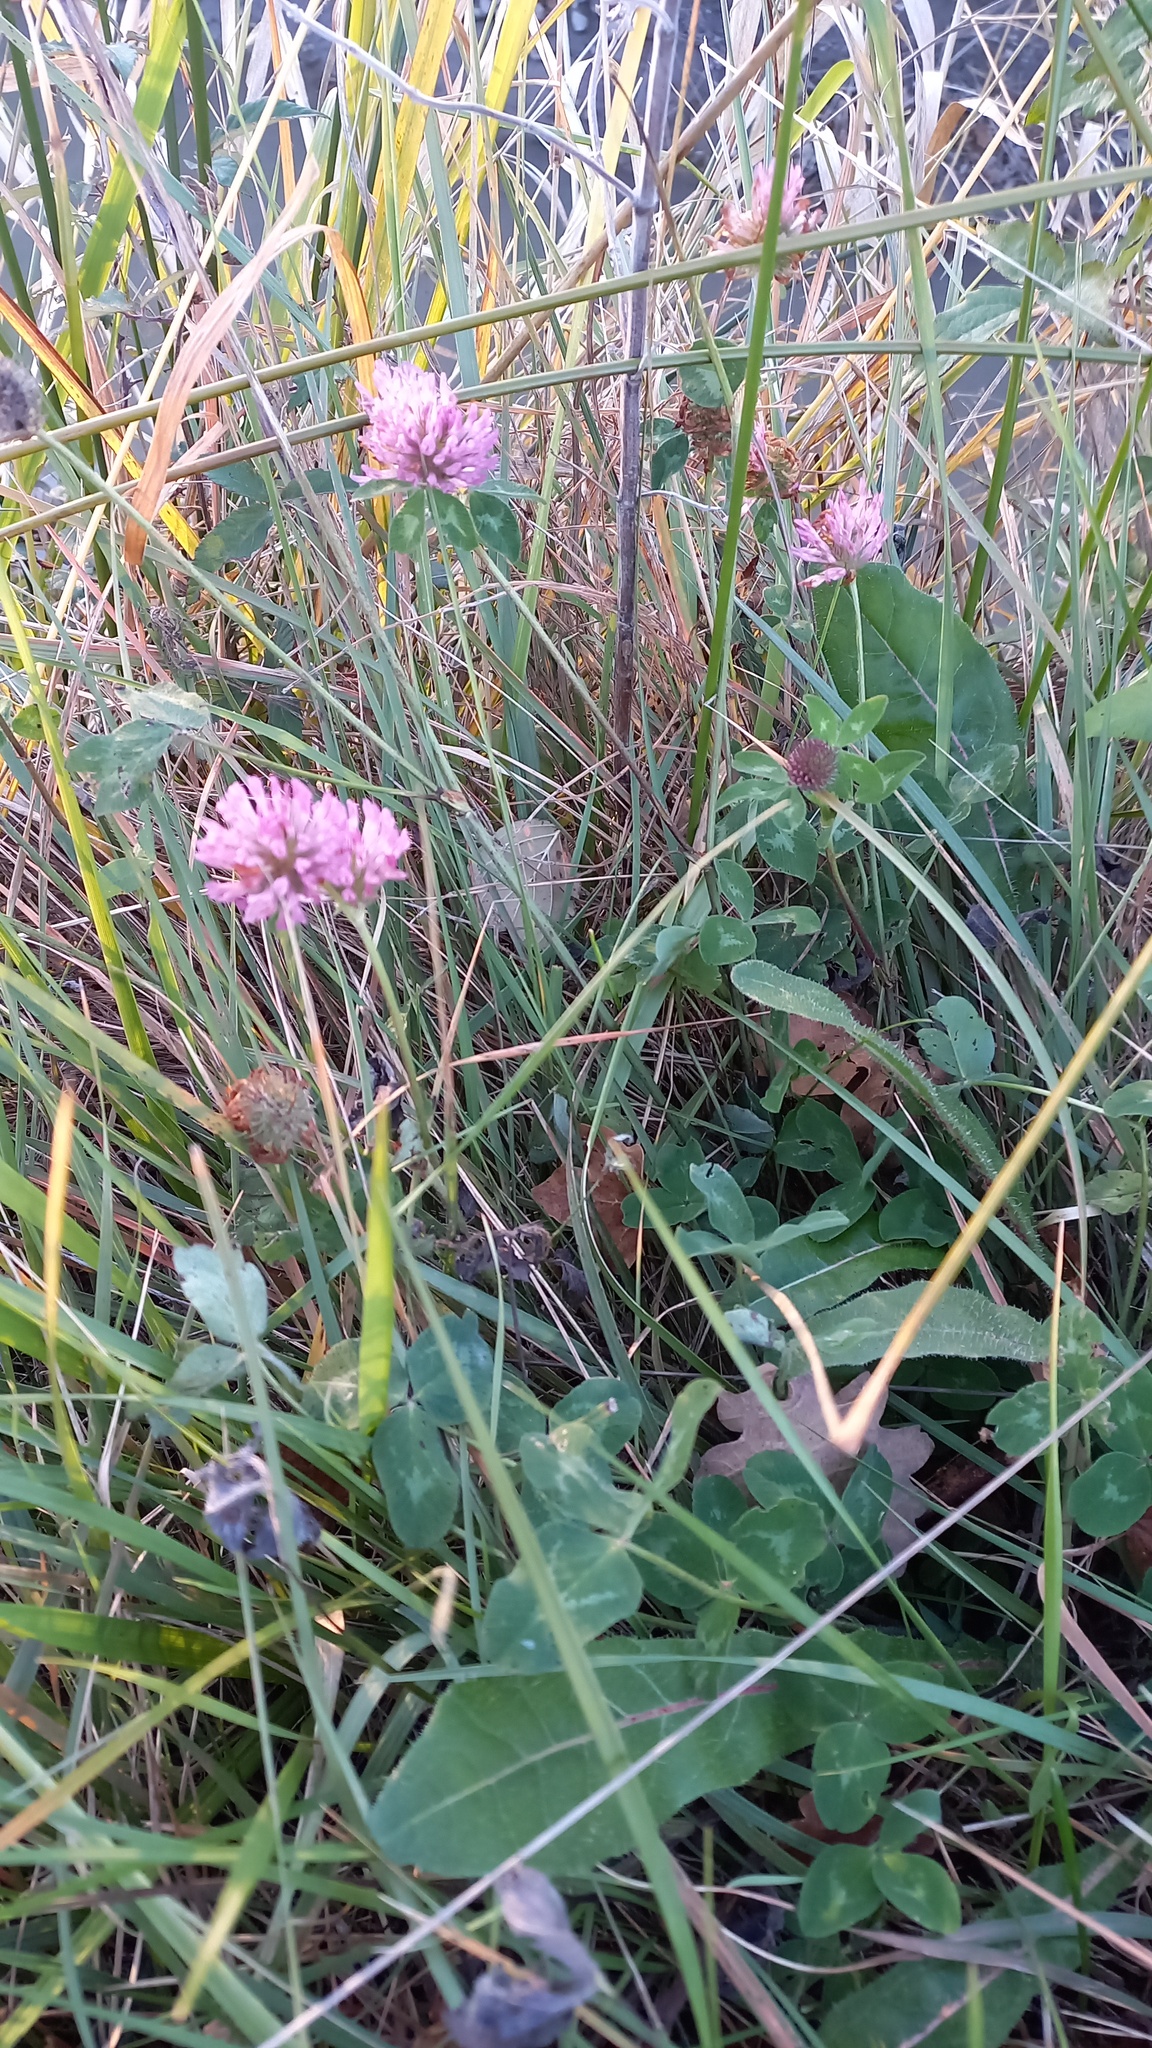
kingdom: Plantae
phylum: Tracheophyta
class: Magnoliopsida
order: Fabales
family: Fabaceae
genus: Trifolium
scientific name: Trifolium pratense
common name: Red clover
